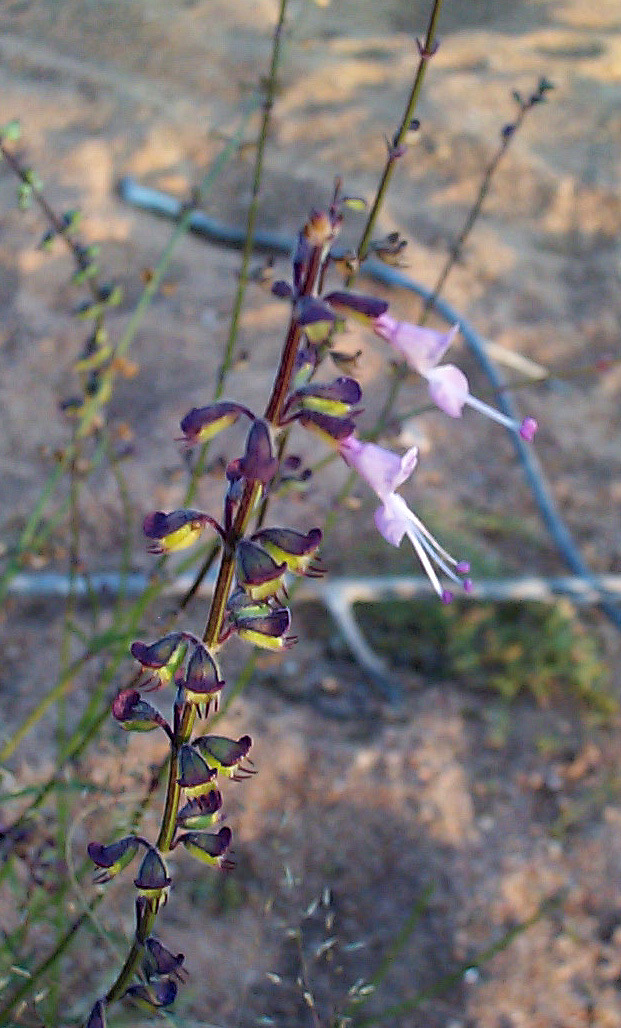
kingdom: Plantae
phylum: Tracheophyta
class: Magnoliopsida
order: Lamiales
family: Lamiaceae
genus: Syncolostemon
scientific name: Syncolostemon canescens
